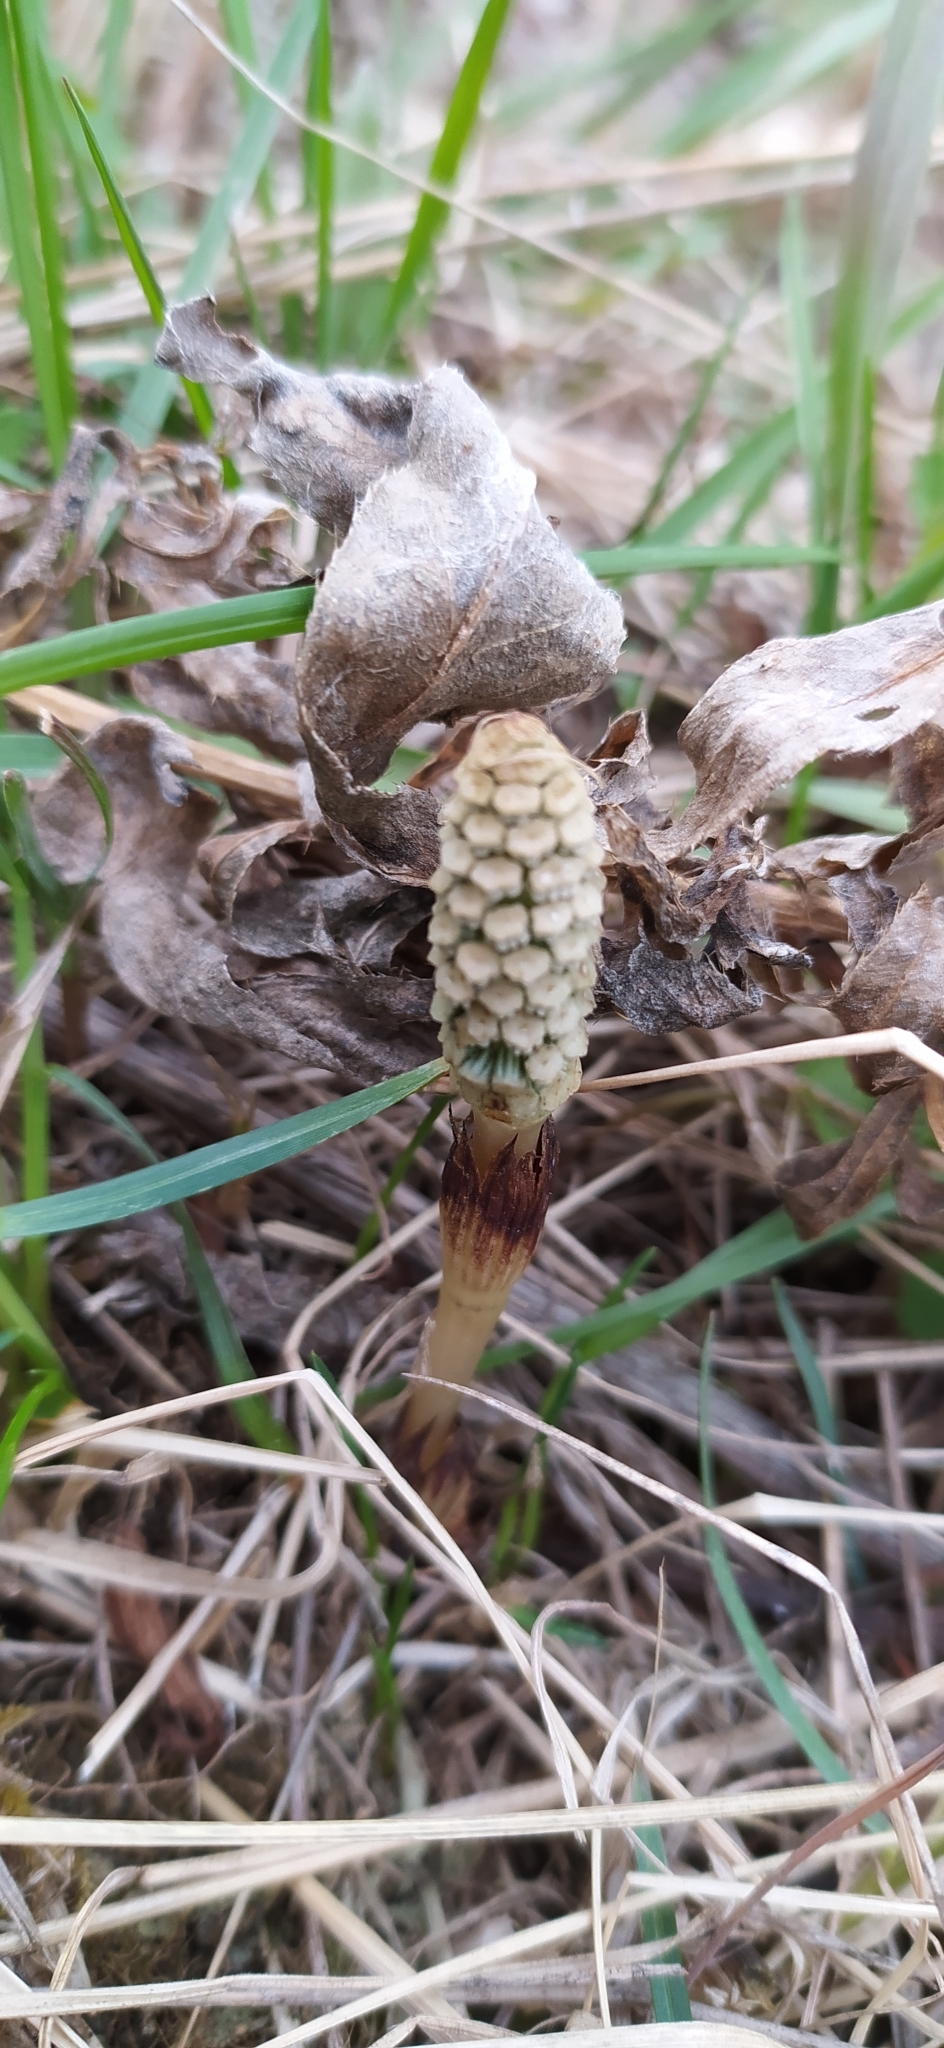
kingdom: Plantae
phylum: Tracheophyta
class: Polypodiopsida
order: Equisetales
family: Equisetaceae
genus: Equisetum
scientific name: Equisetum arvense
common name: Field horsetail
